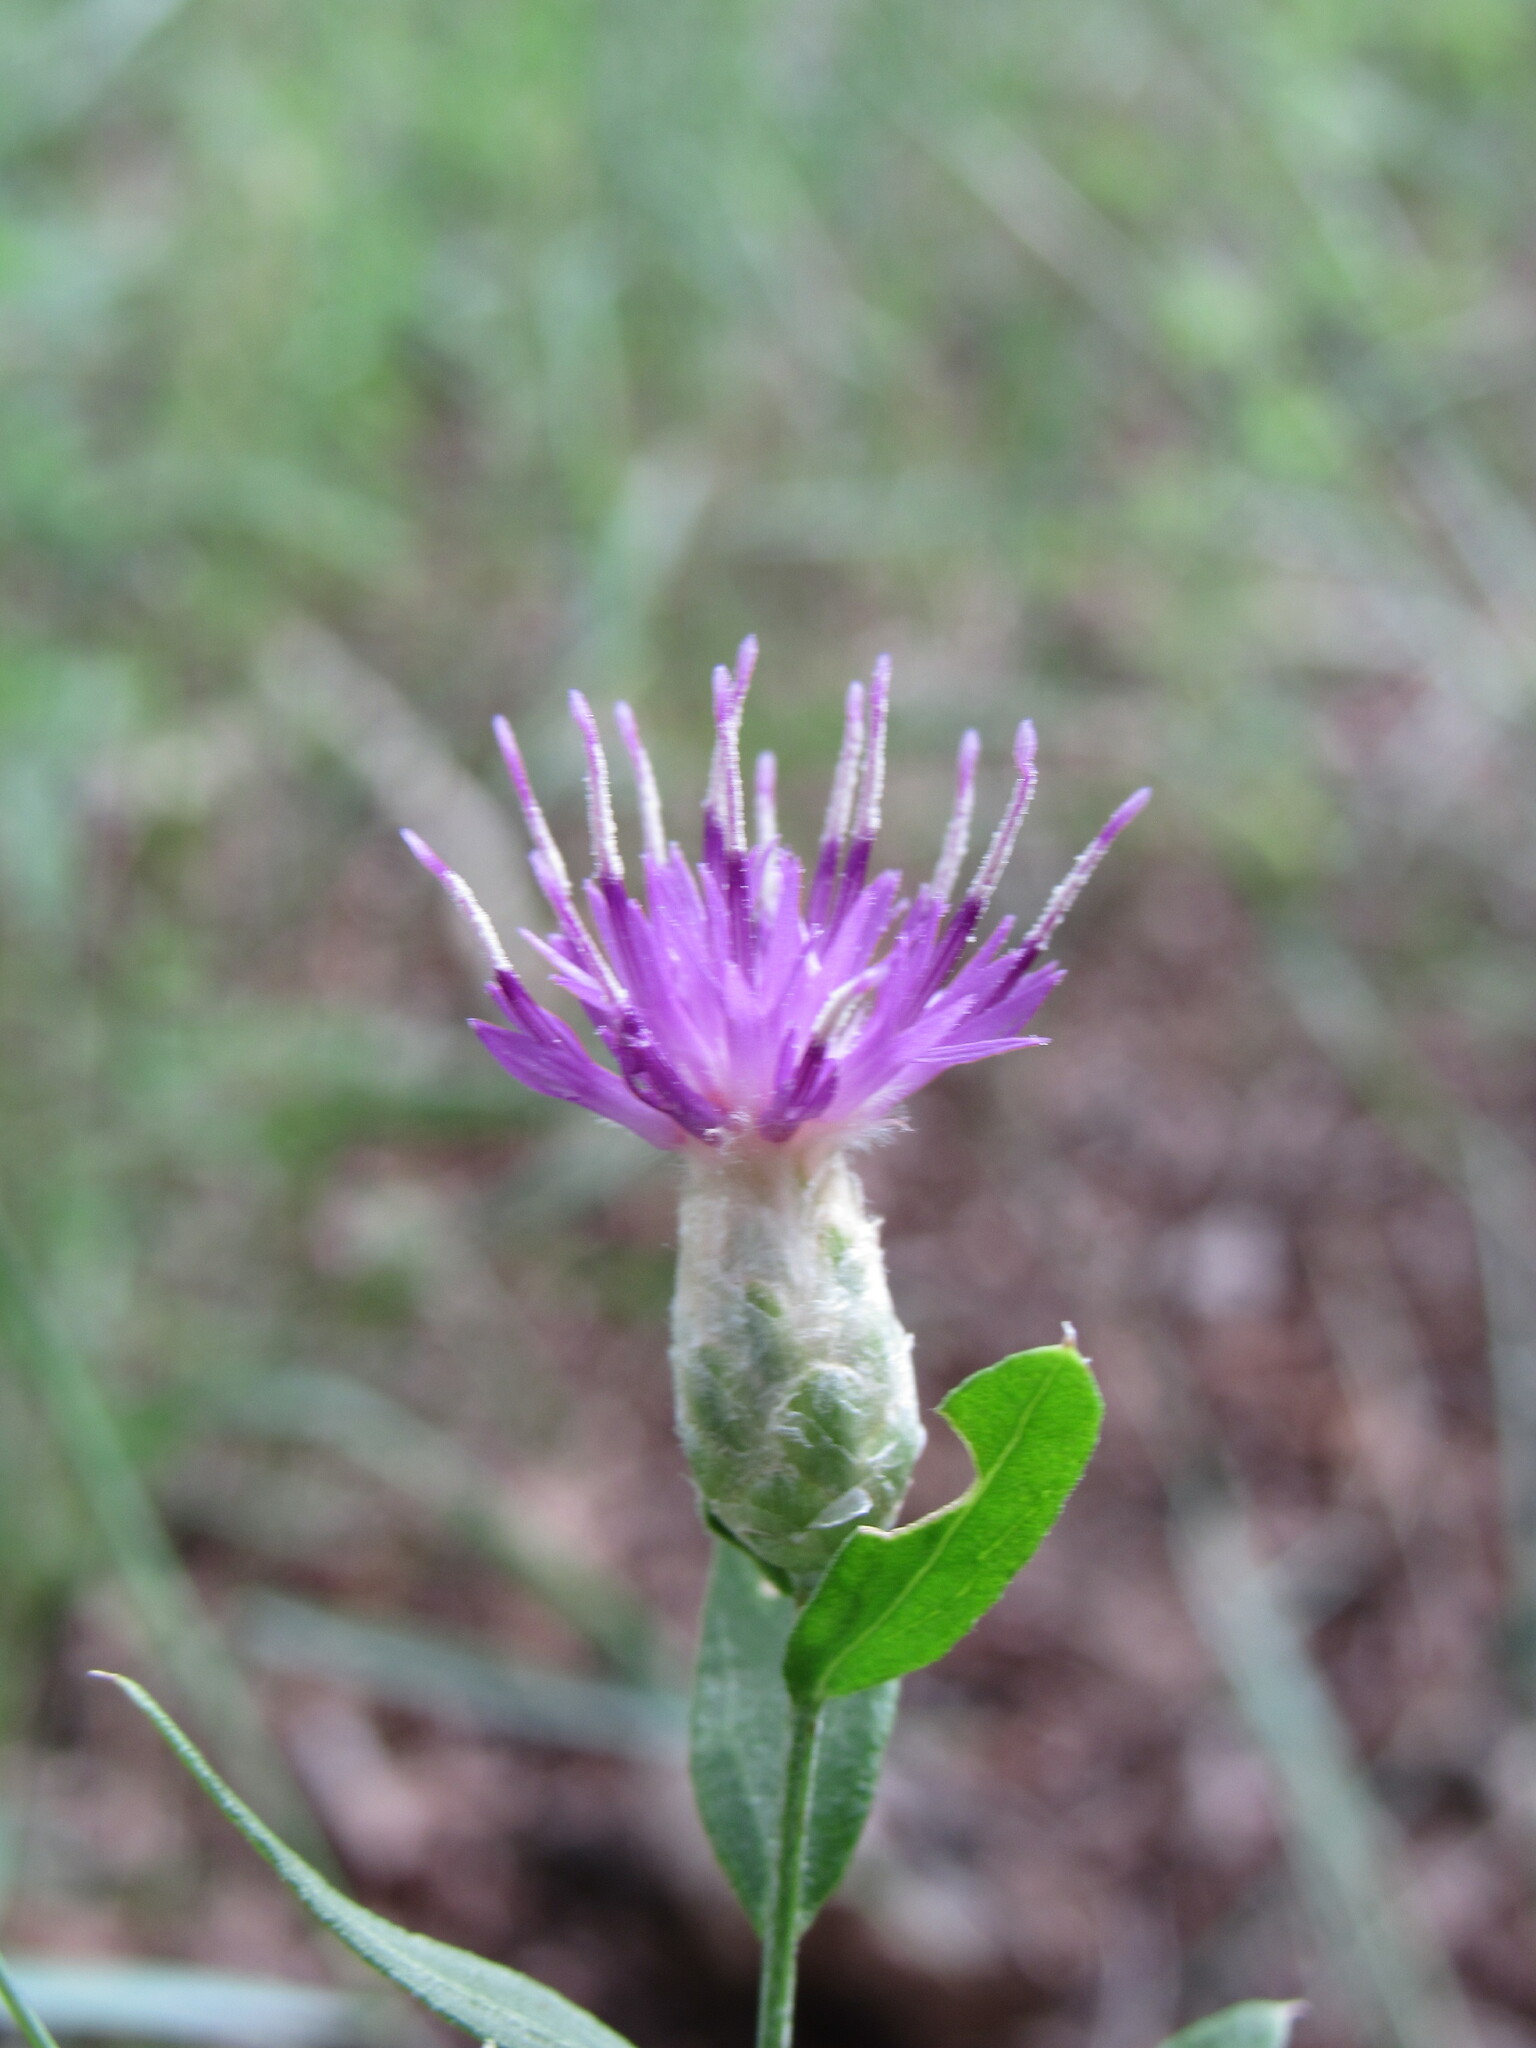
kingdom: Plantae
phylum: Tracheophyta
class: Magnoliopsida
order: Asterales
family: Asteraceae
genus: Leuzea
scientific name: Leuzea repens
